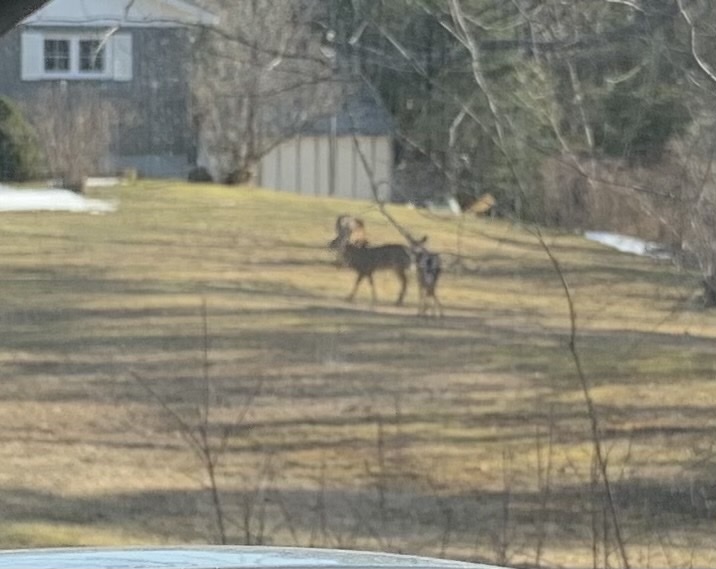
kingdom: Animalia
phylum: Chordata
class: Mammalia
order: Artiodactyla
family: Cervidae
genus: Odocoileus
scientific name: Odocoileus virginianus
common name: White-tailed deer
